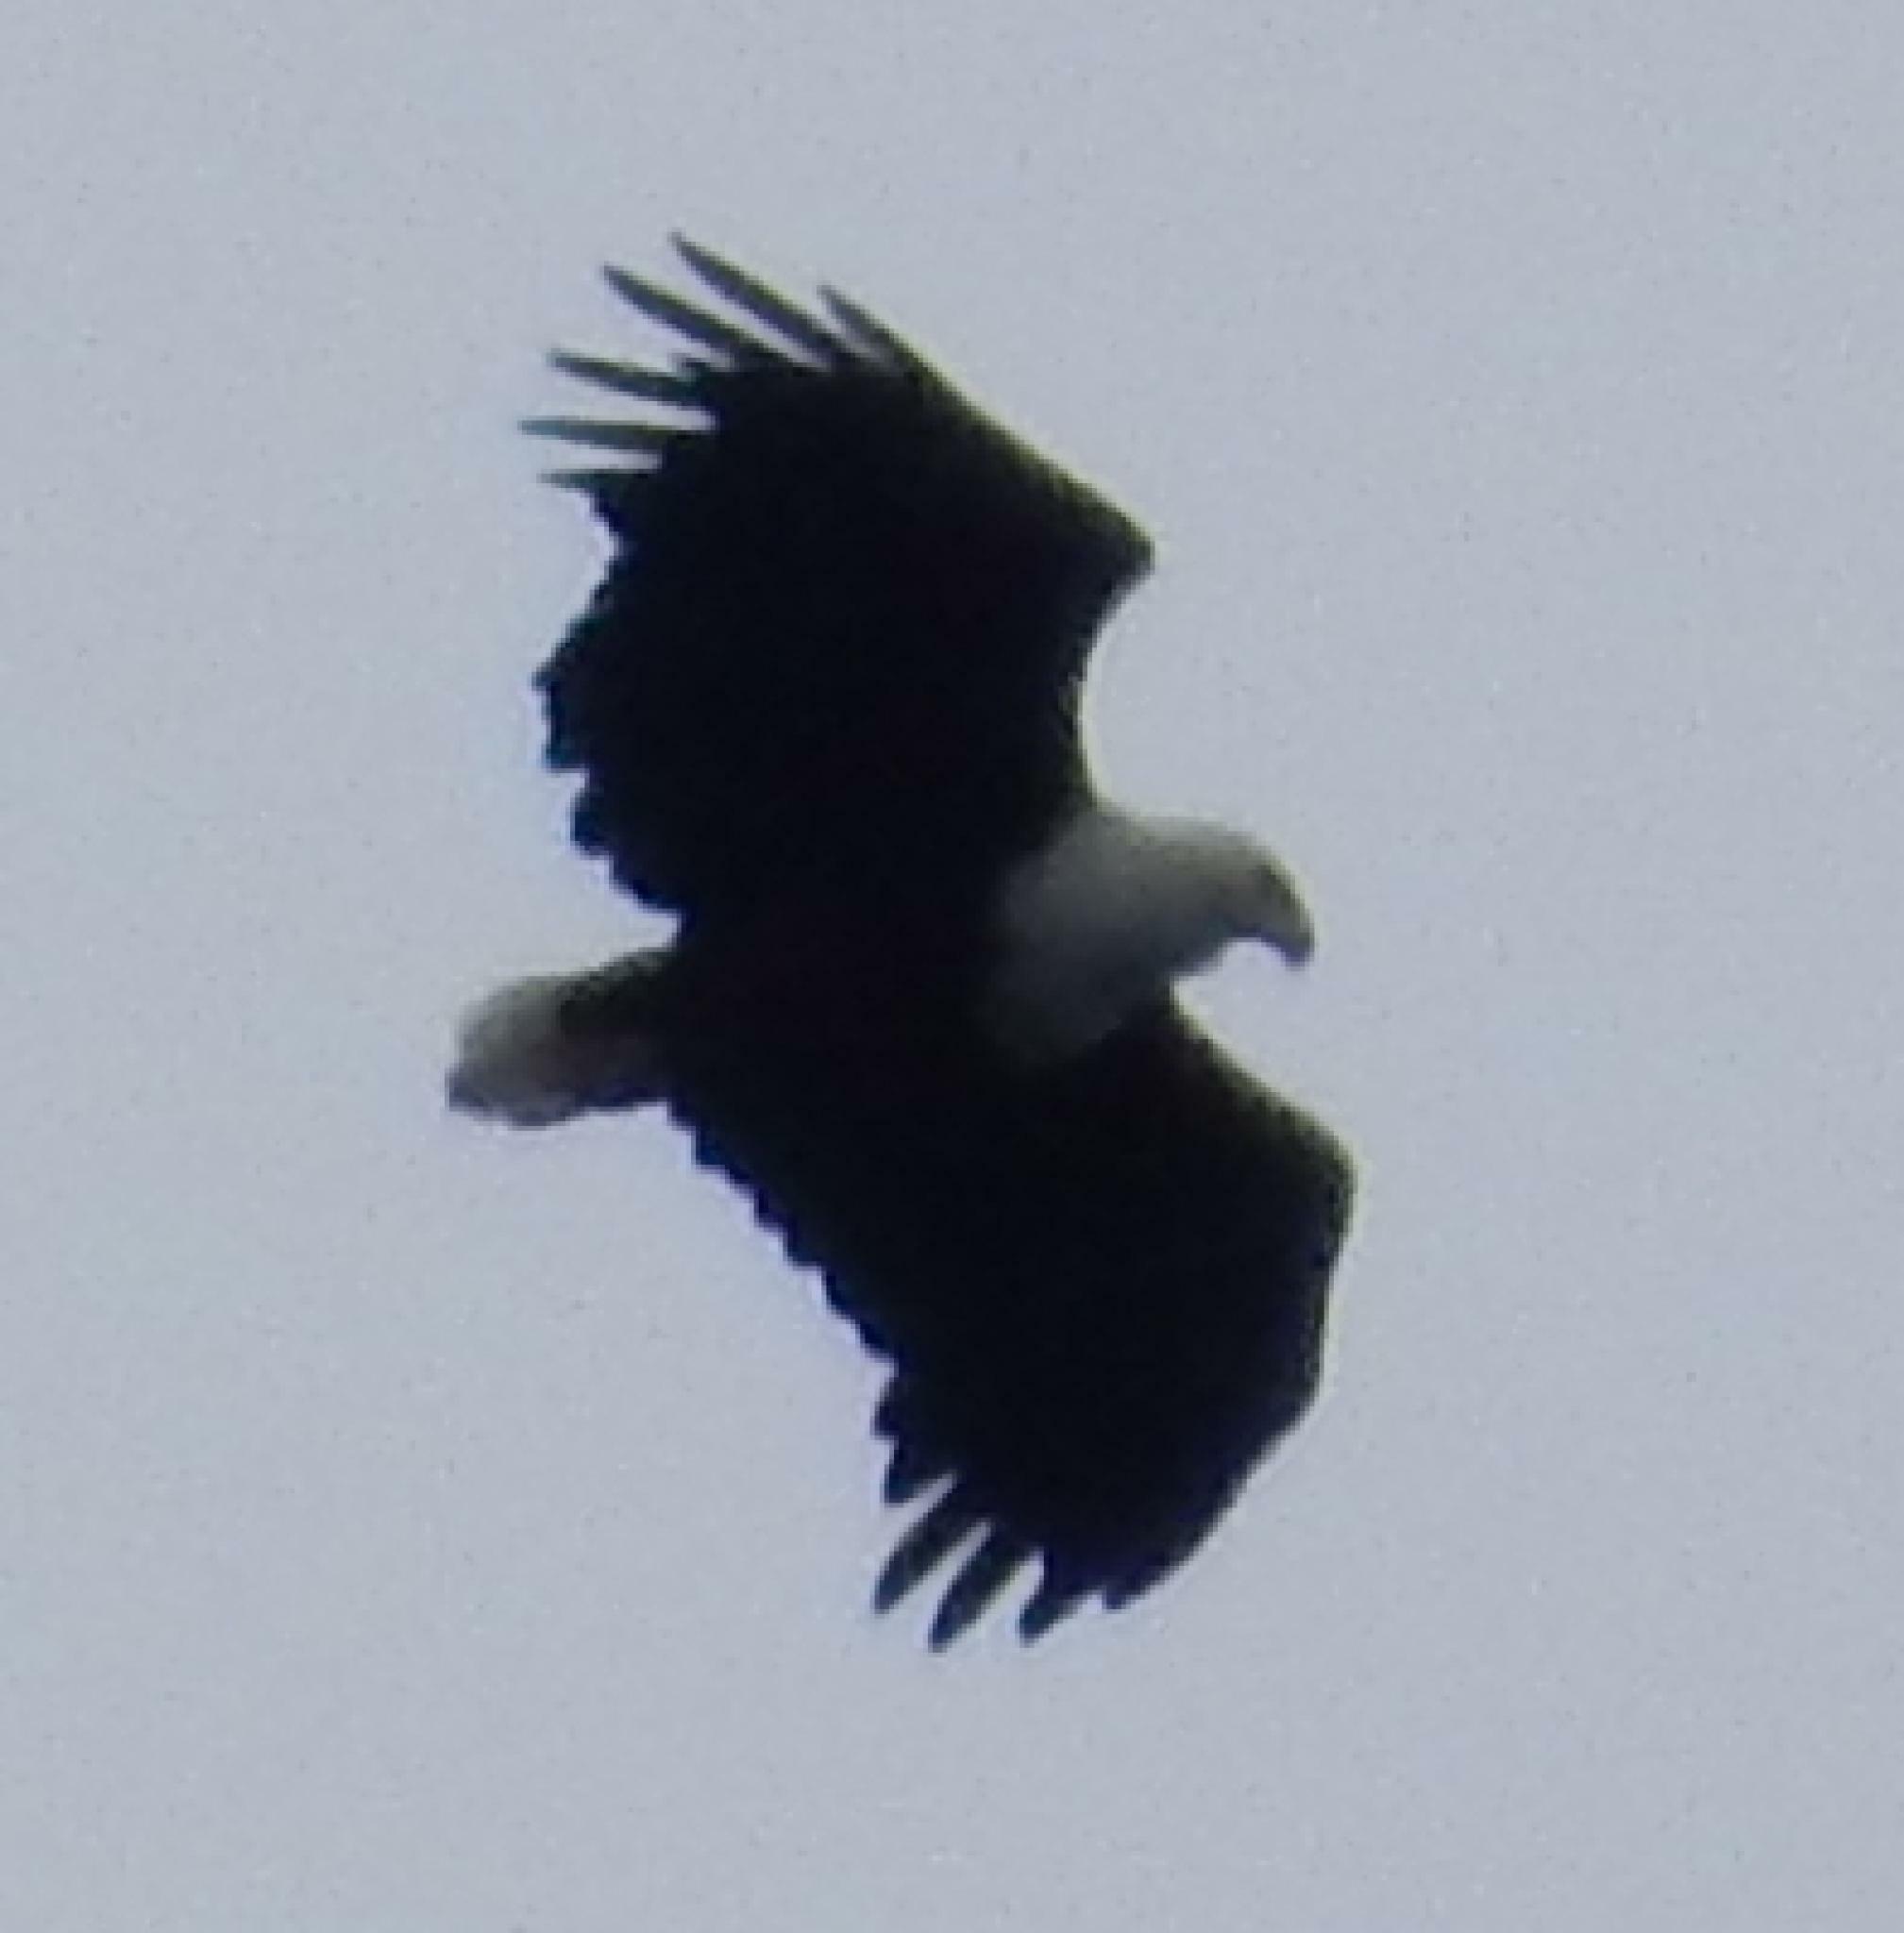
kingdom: Animalia
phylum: Chordata
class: Aves
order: Accipitriformes
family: Accipitridae
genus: Haliaeetus
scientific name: Haliaeetus vocifer
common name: African fish eagle
